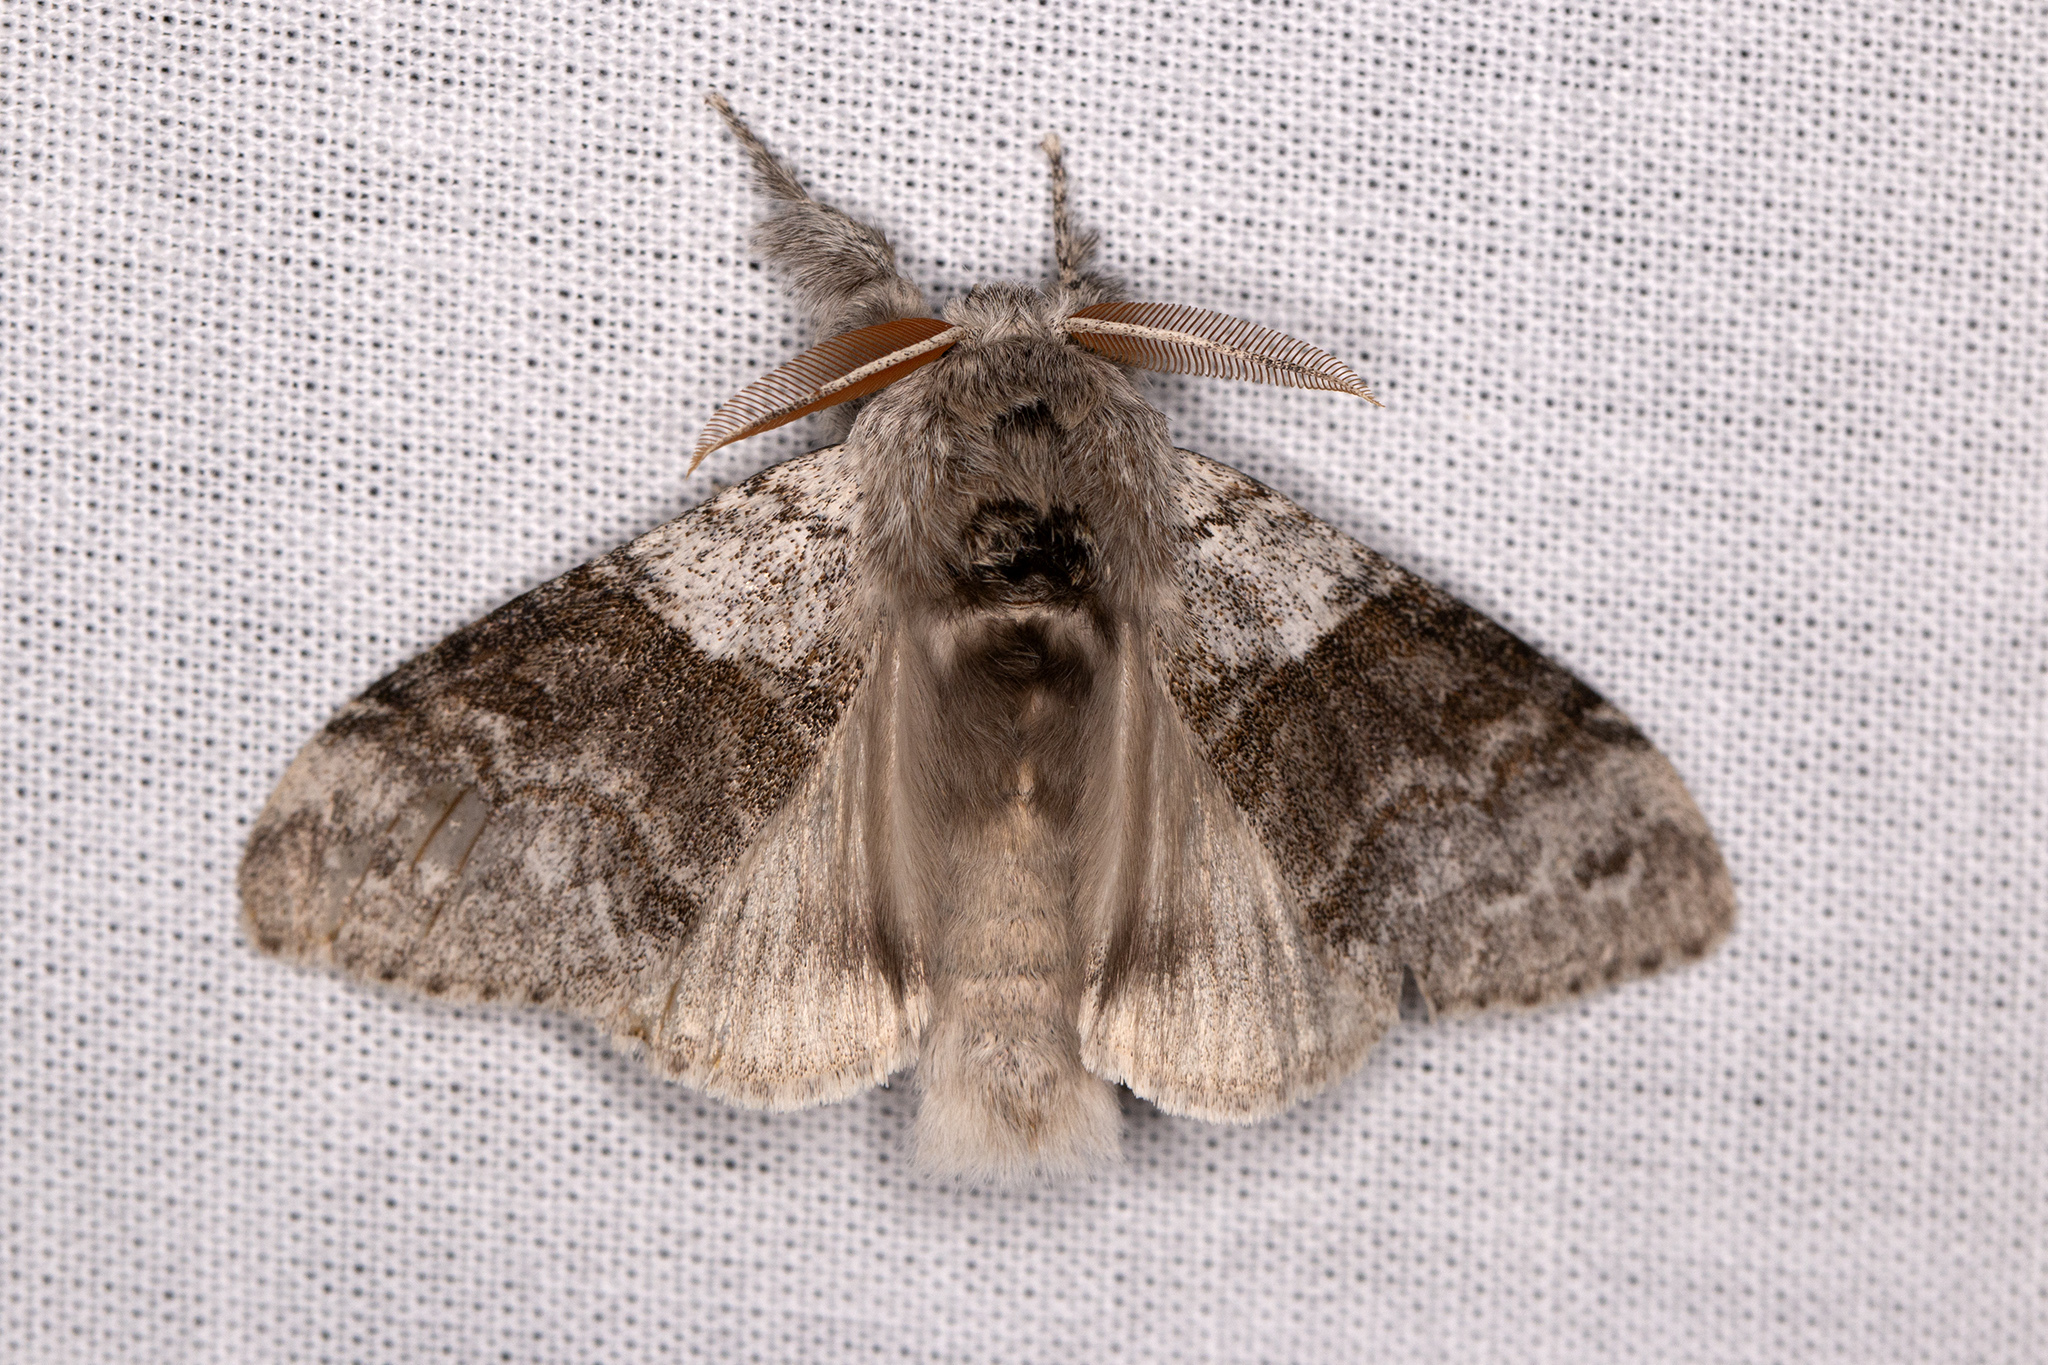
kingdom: Animalia
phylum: Arthropoda
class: Insecta
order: Lepidoptera
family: Erebidae
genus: Calliteara
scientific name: Calliteara pudibunda
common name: Pale tussock
